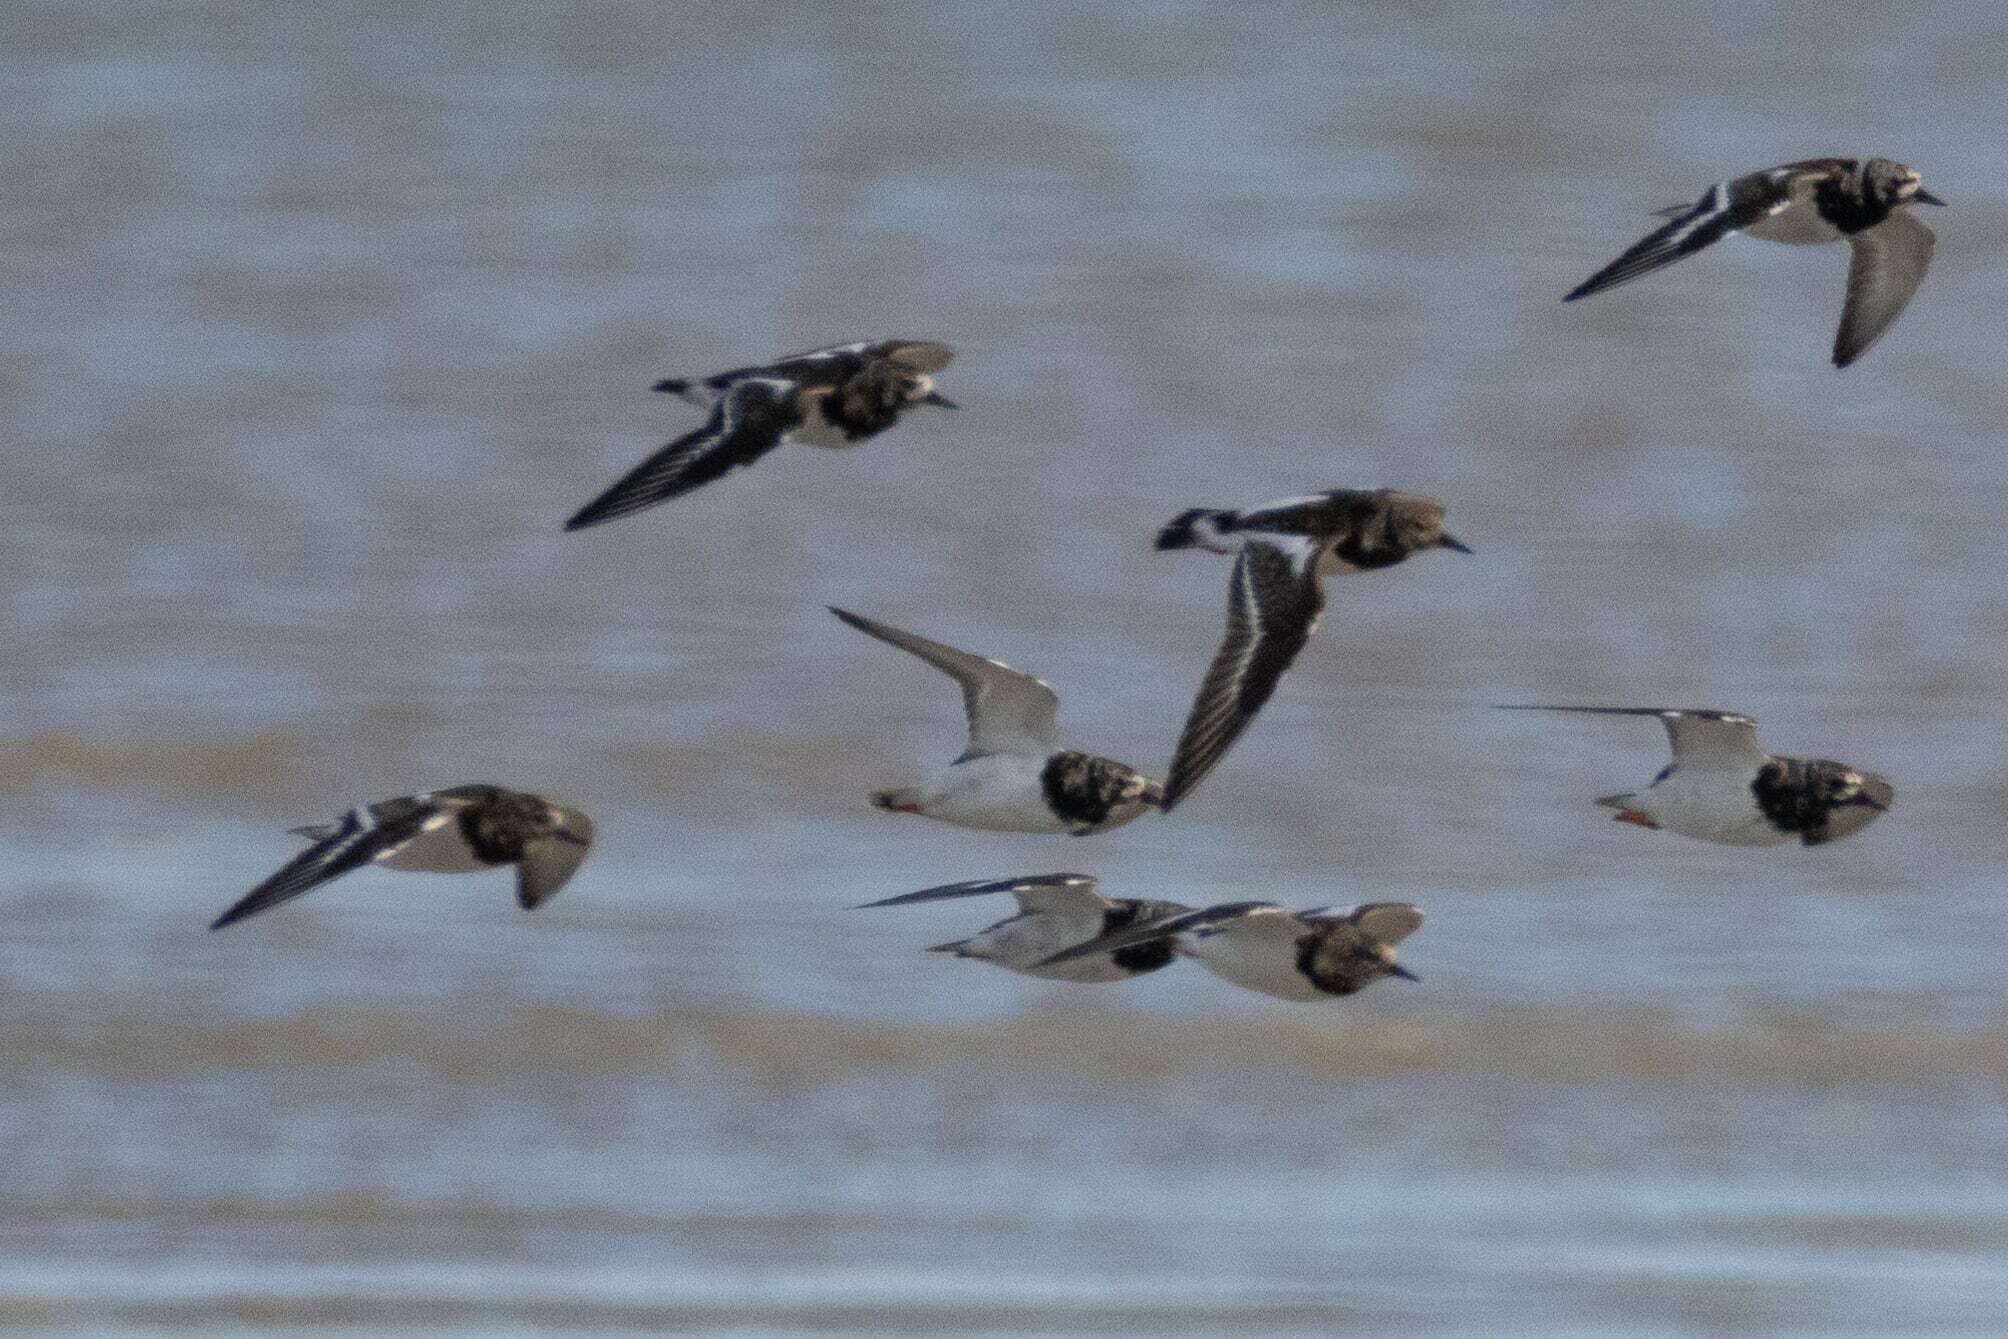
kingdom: Animalia
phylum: Chordata
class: Aves
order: Charadriiformes
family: Scolopacidae
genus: Arenaria
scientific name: Arenaria interpres
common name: Ruddy turnstone
